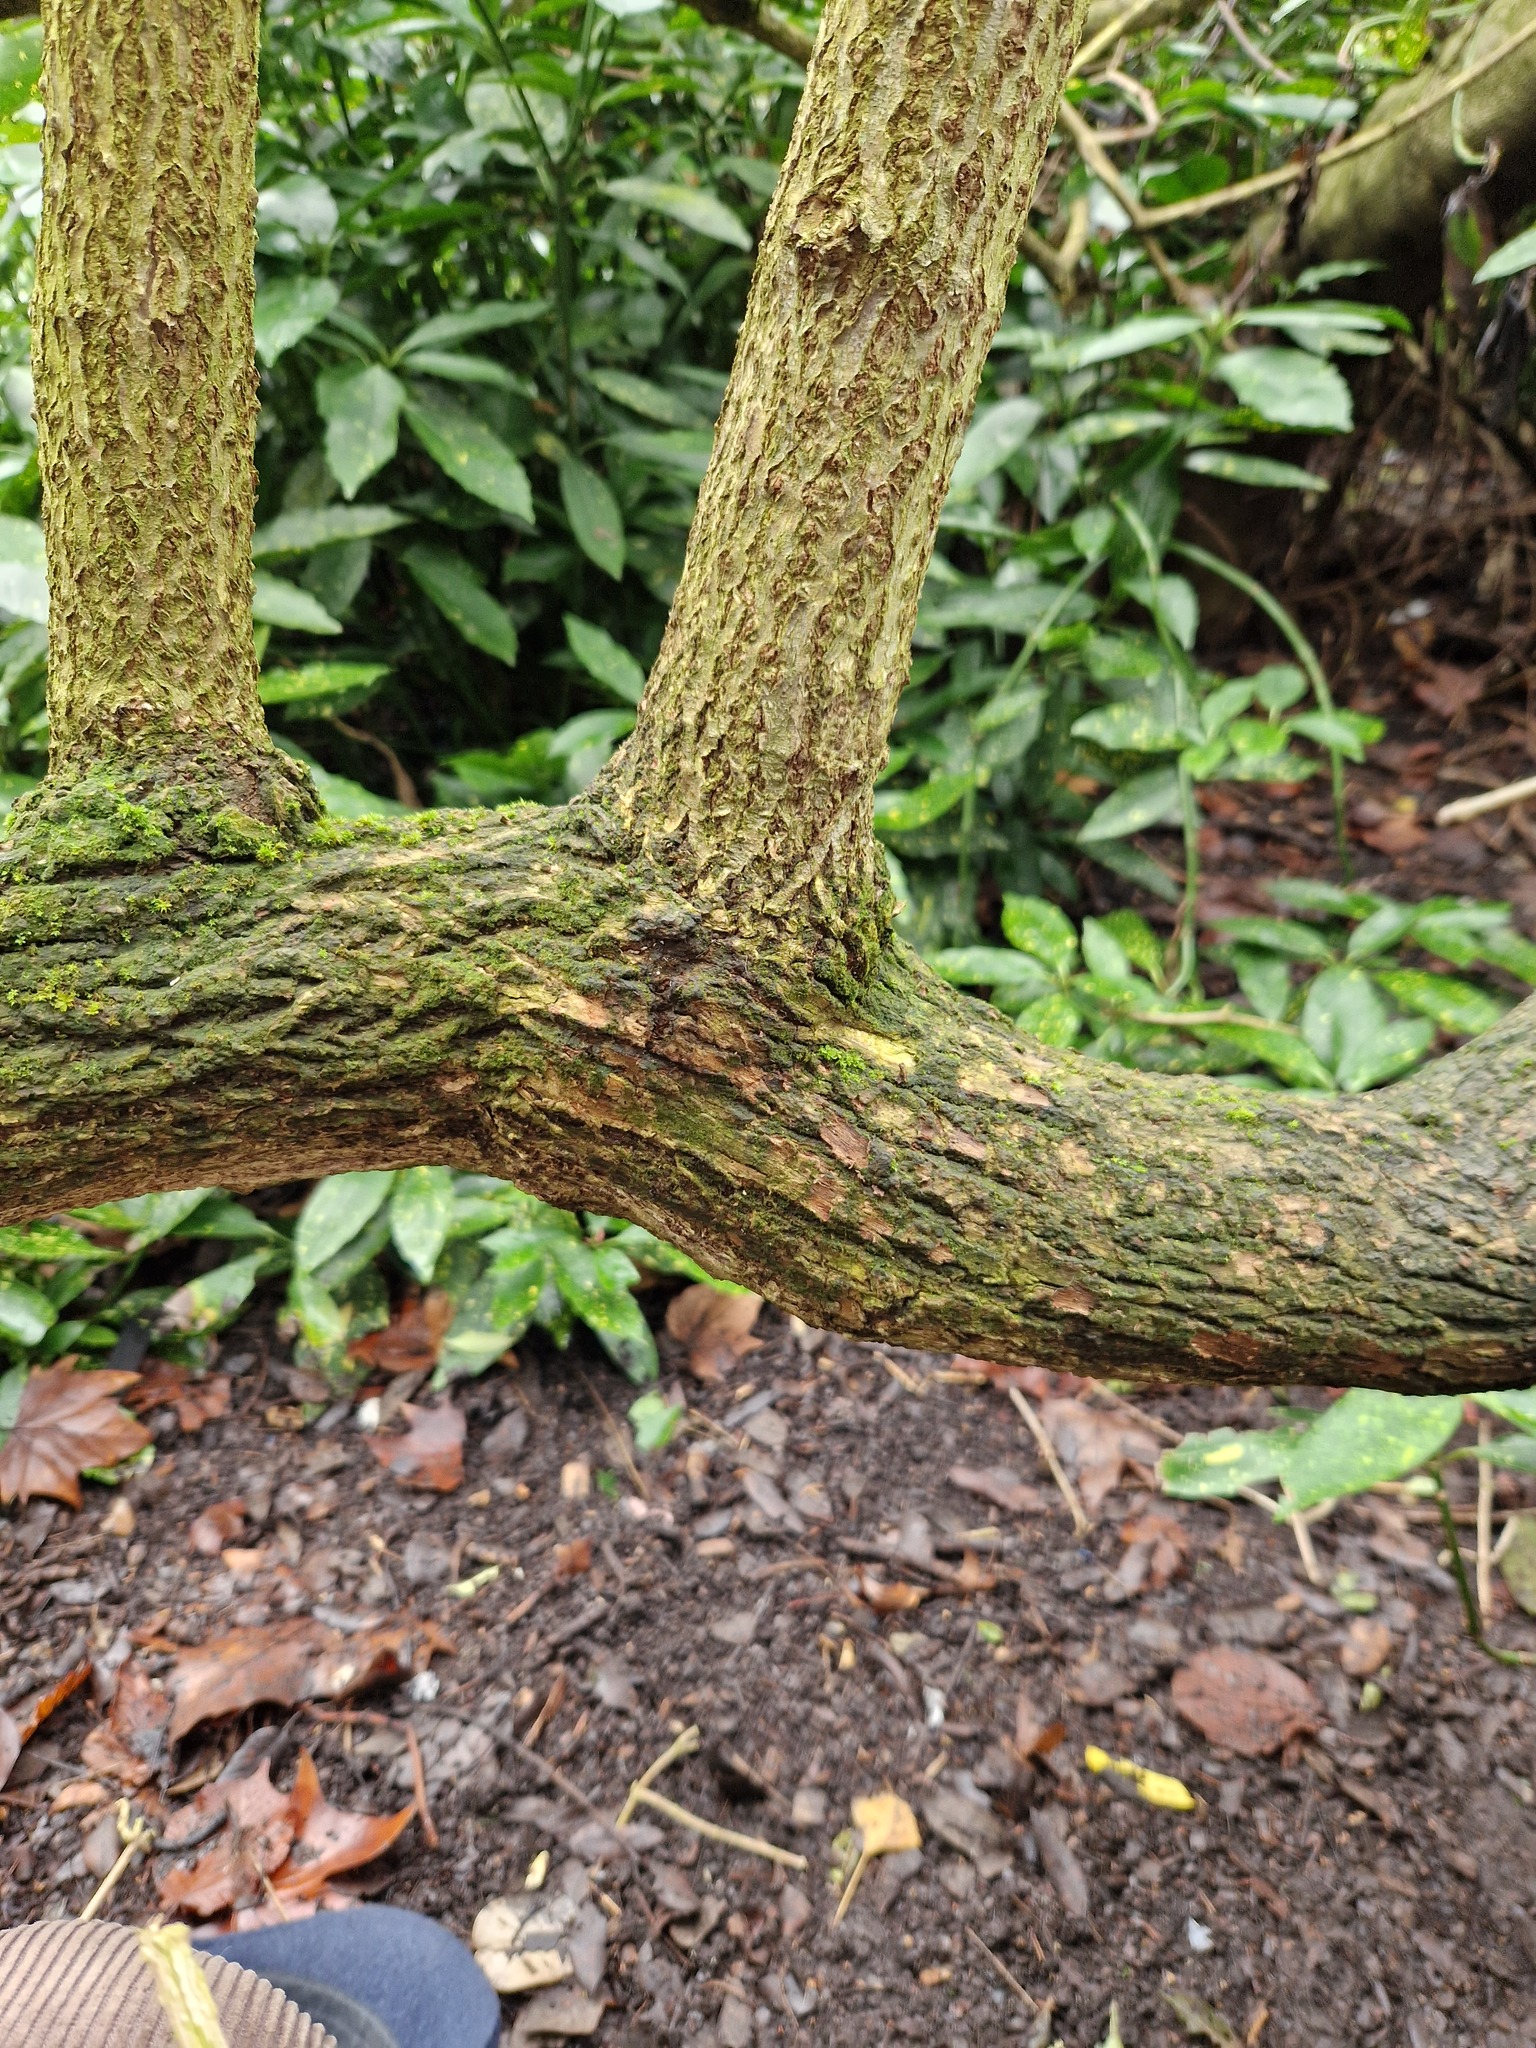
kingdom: Plantae
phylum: Bryophyta
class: Bryopsida
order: Pottiales
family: Pottiaceae
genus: Syntrichia
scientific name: Syntrichia papillosa
